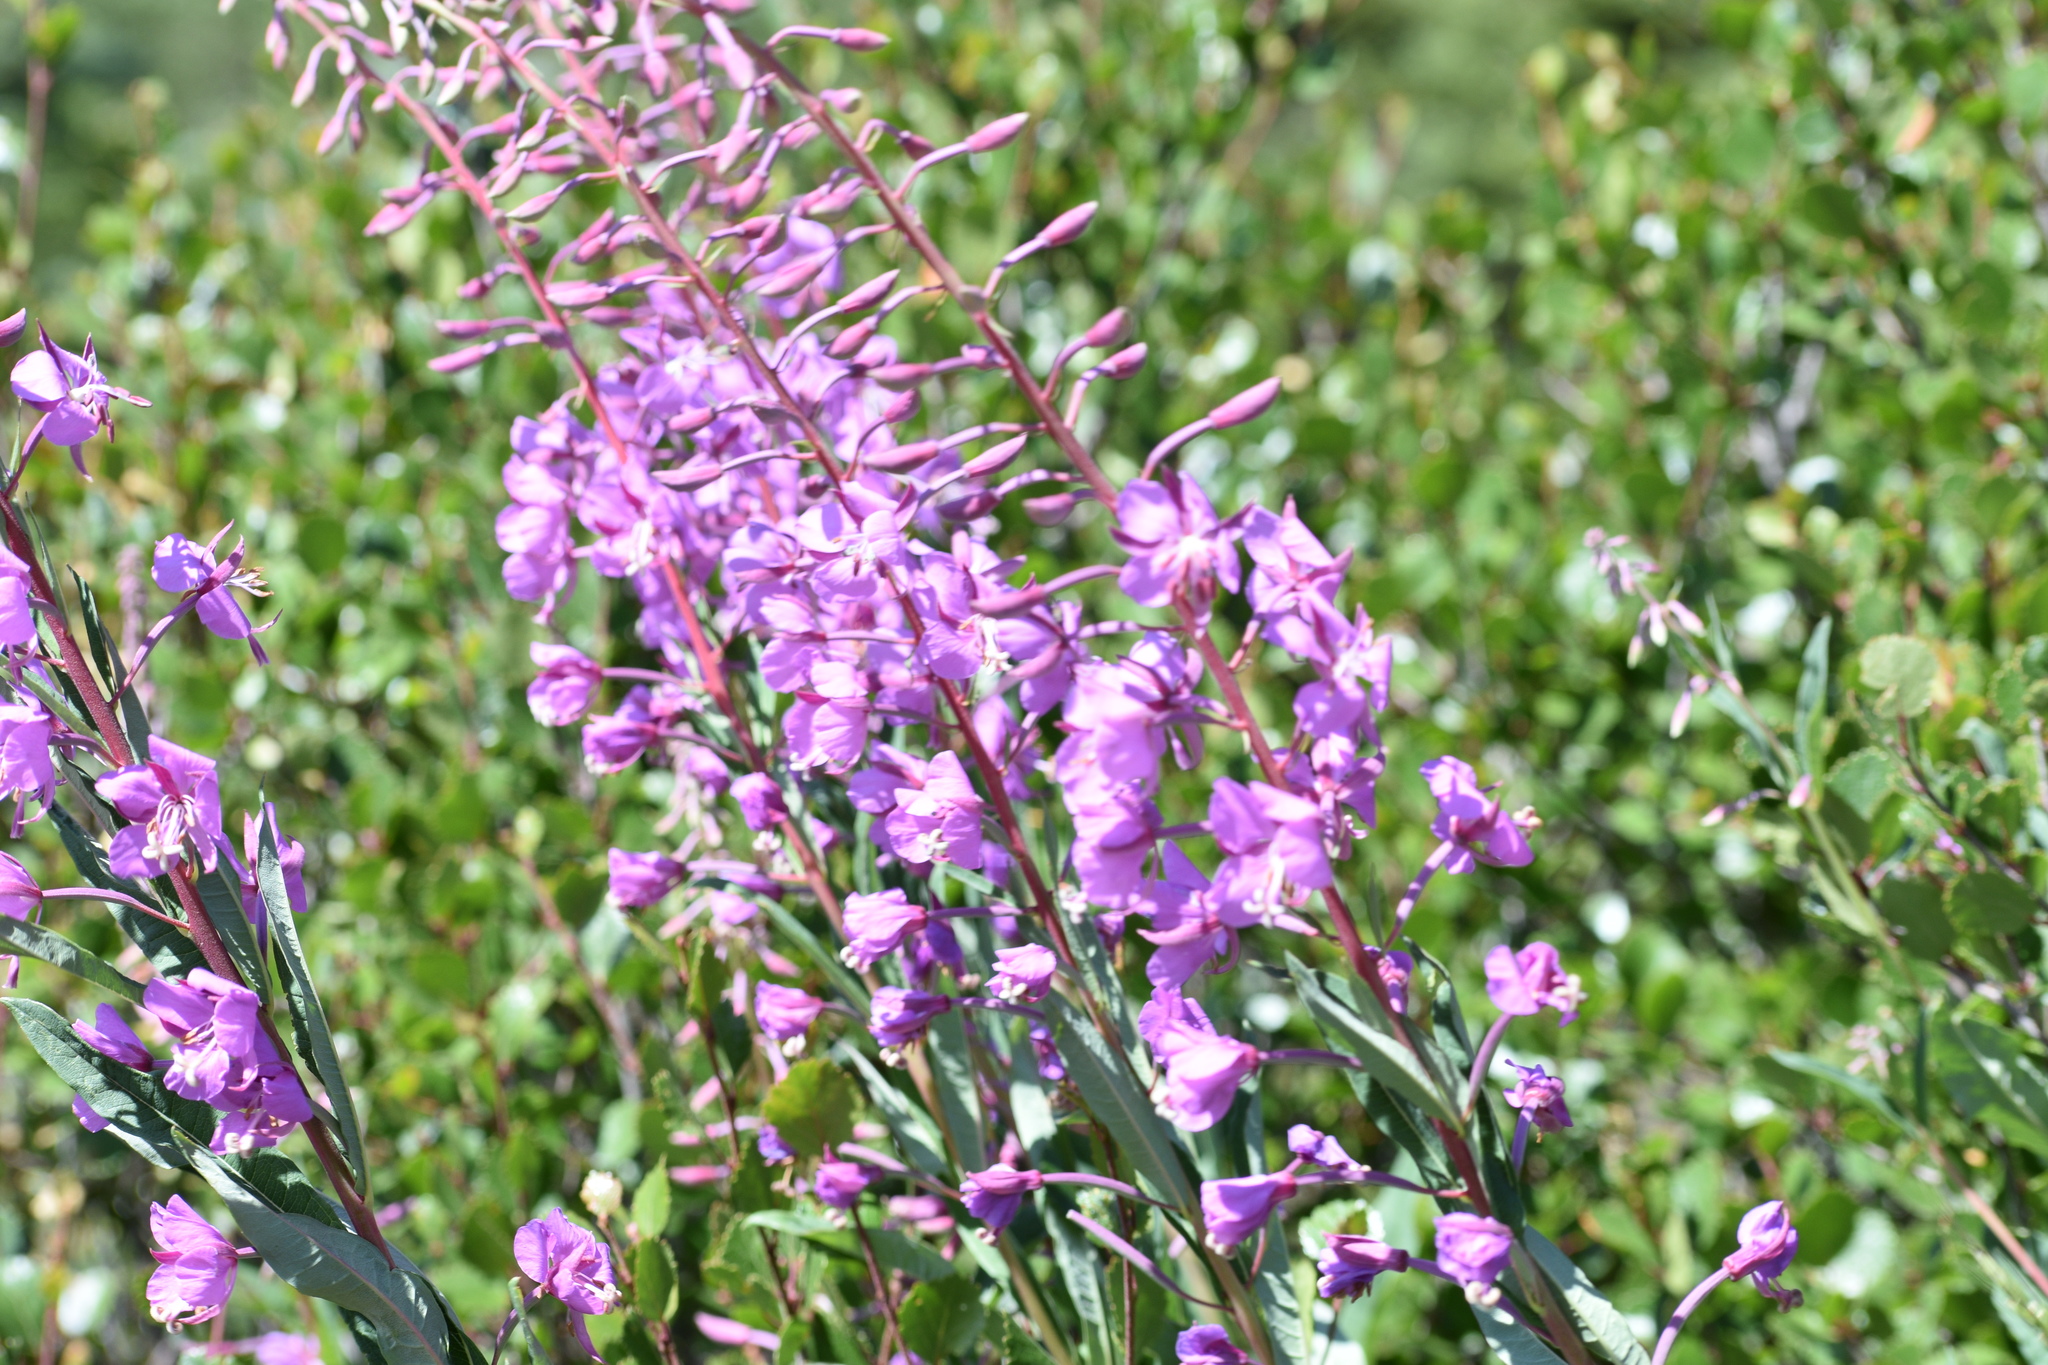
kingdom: Plantae
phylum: Tracheophyta
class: Magnoliopsida
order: Myrtales
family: Onagraceae
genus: Chamaenerion
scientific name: Chamaenerion angustifolium
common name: Fireweed
